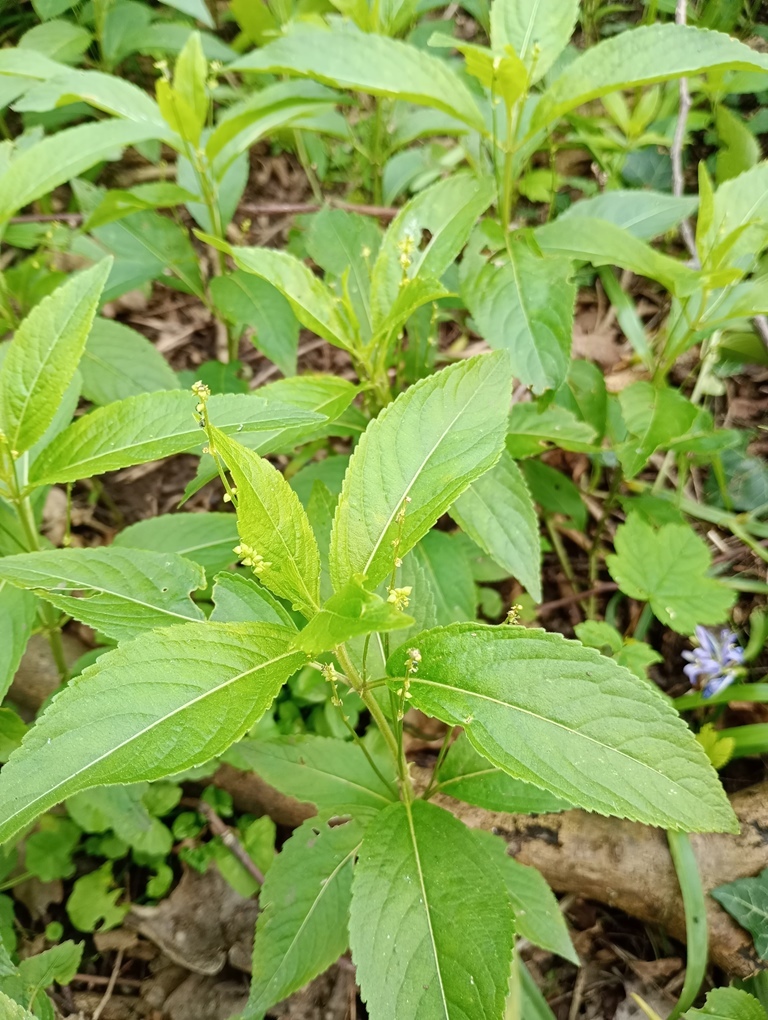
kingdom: Plantae
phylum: Tracheophyta
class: Magnoliopsida
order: Malpighiales
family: Euphorbiaceae
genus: Mercurialis
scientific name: Mercurialis perennis
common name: Dog mercury
